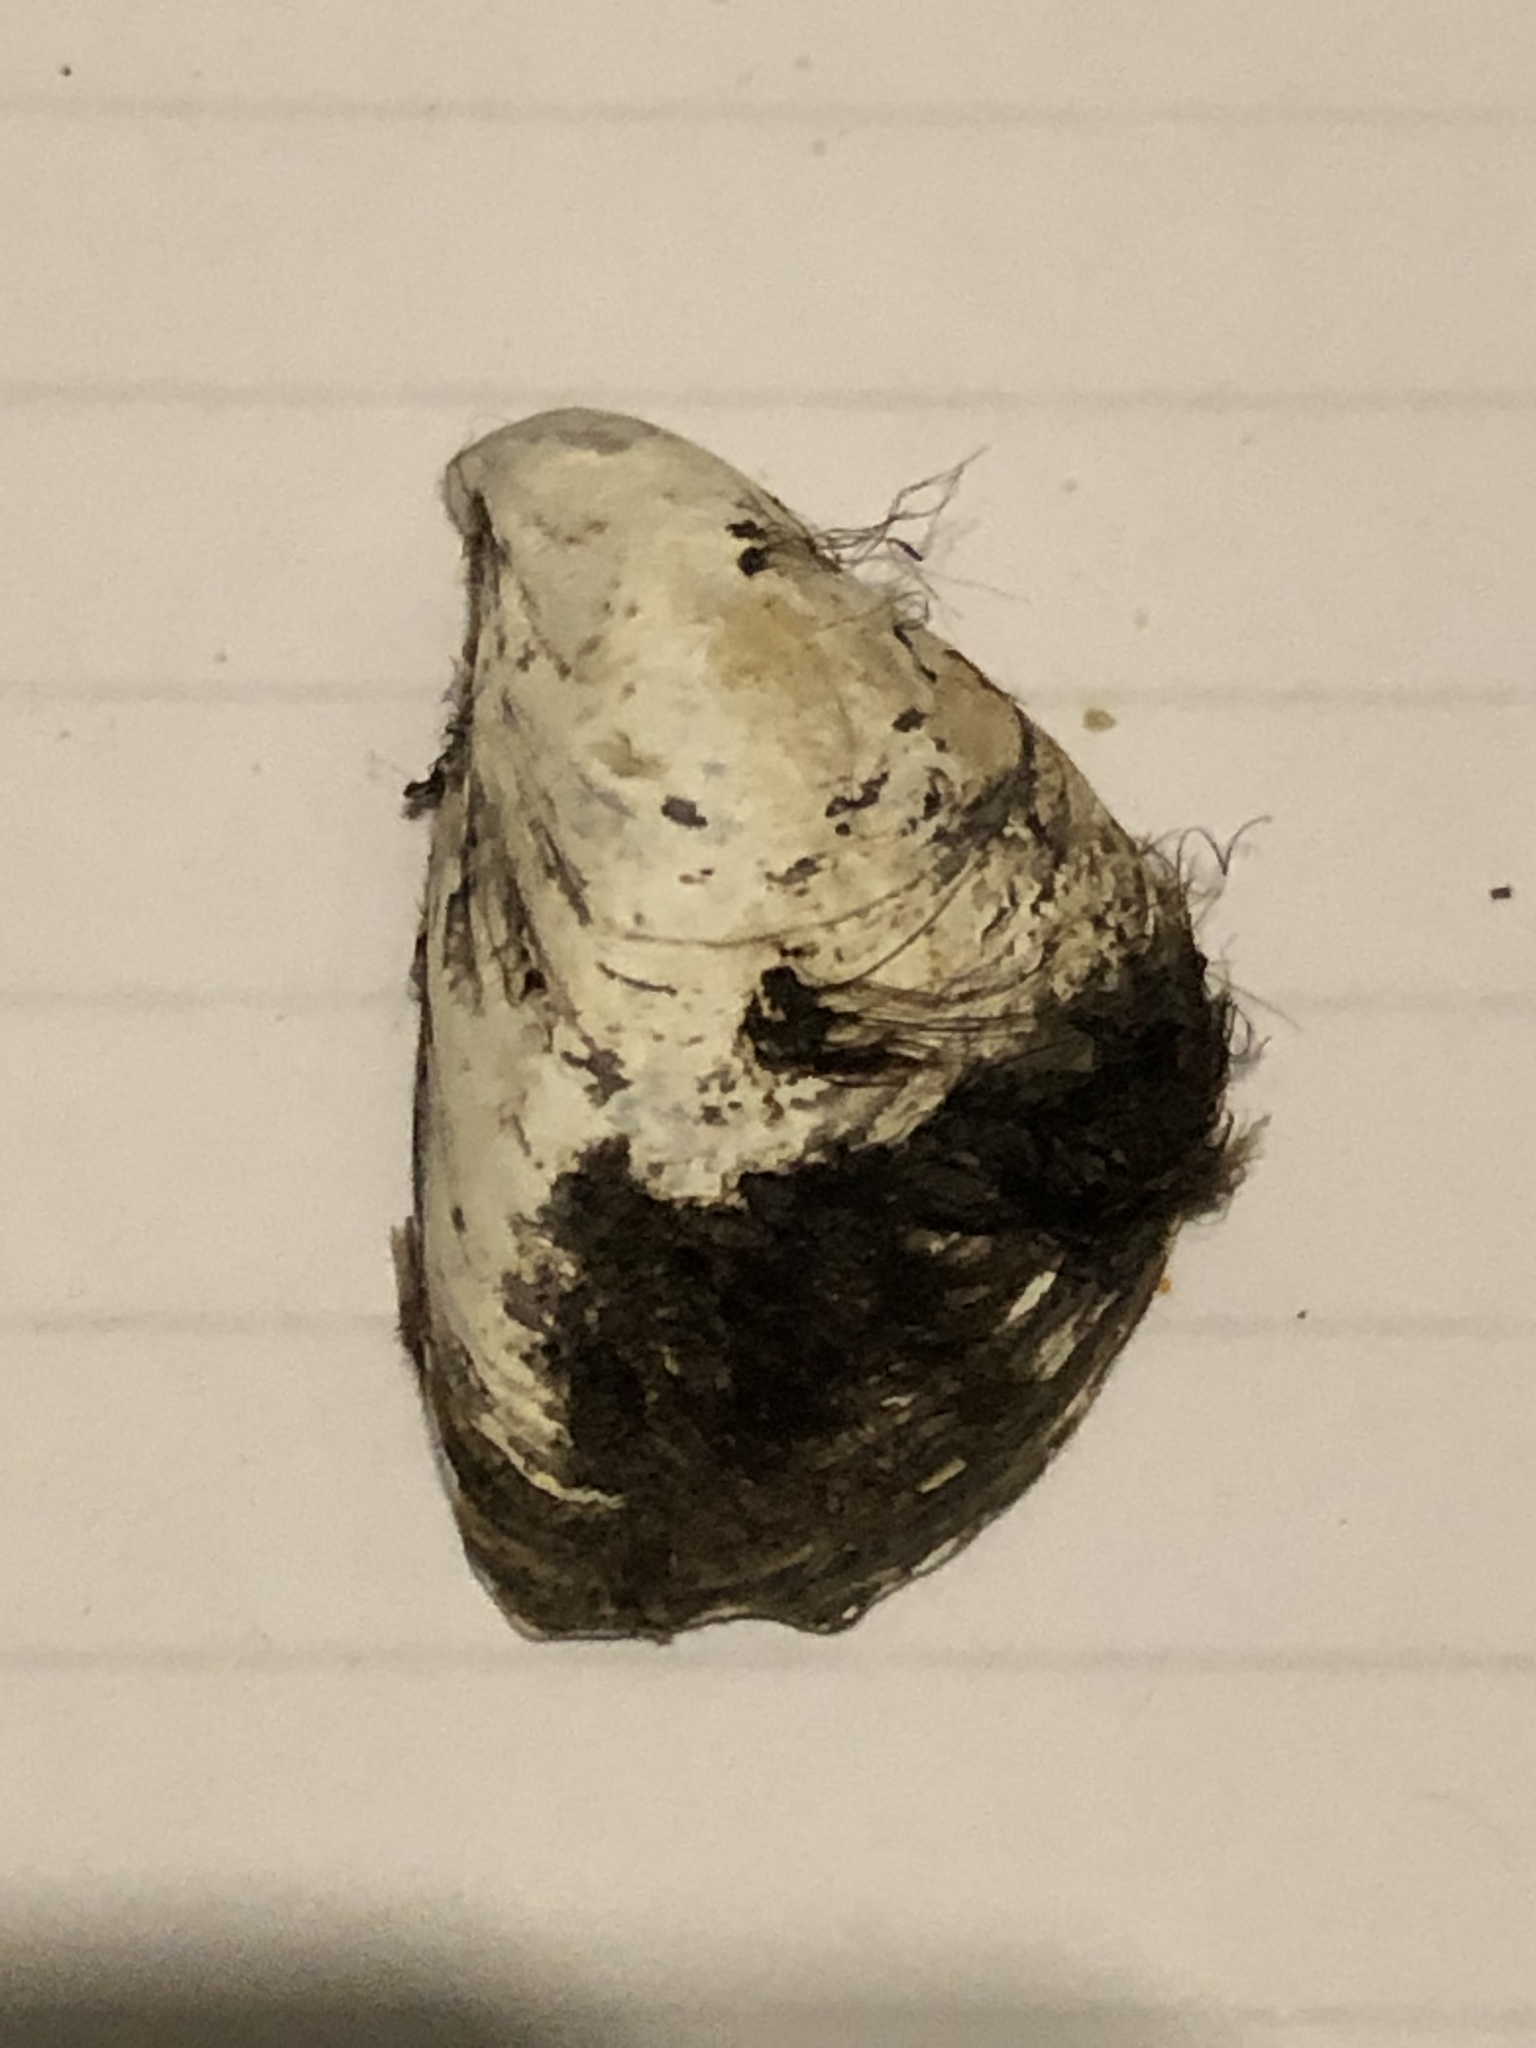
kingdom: Animalia
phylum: Mollusca
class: Bivalvia
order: Myida
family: Dreissenidae
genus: Dreissena
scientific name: Dreissena bugensis
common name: Quagga mussel
